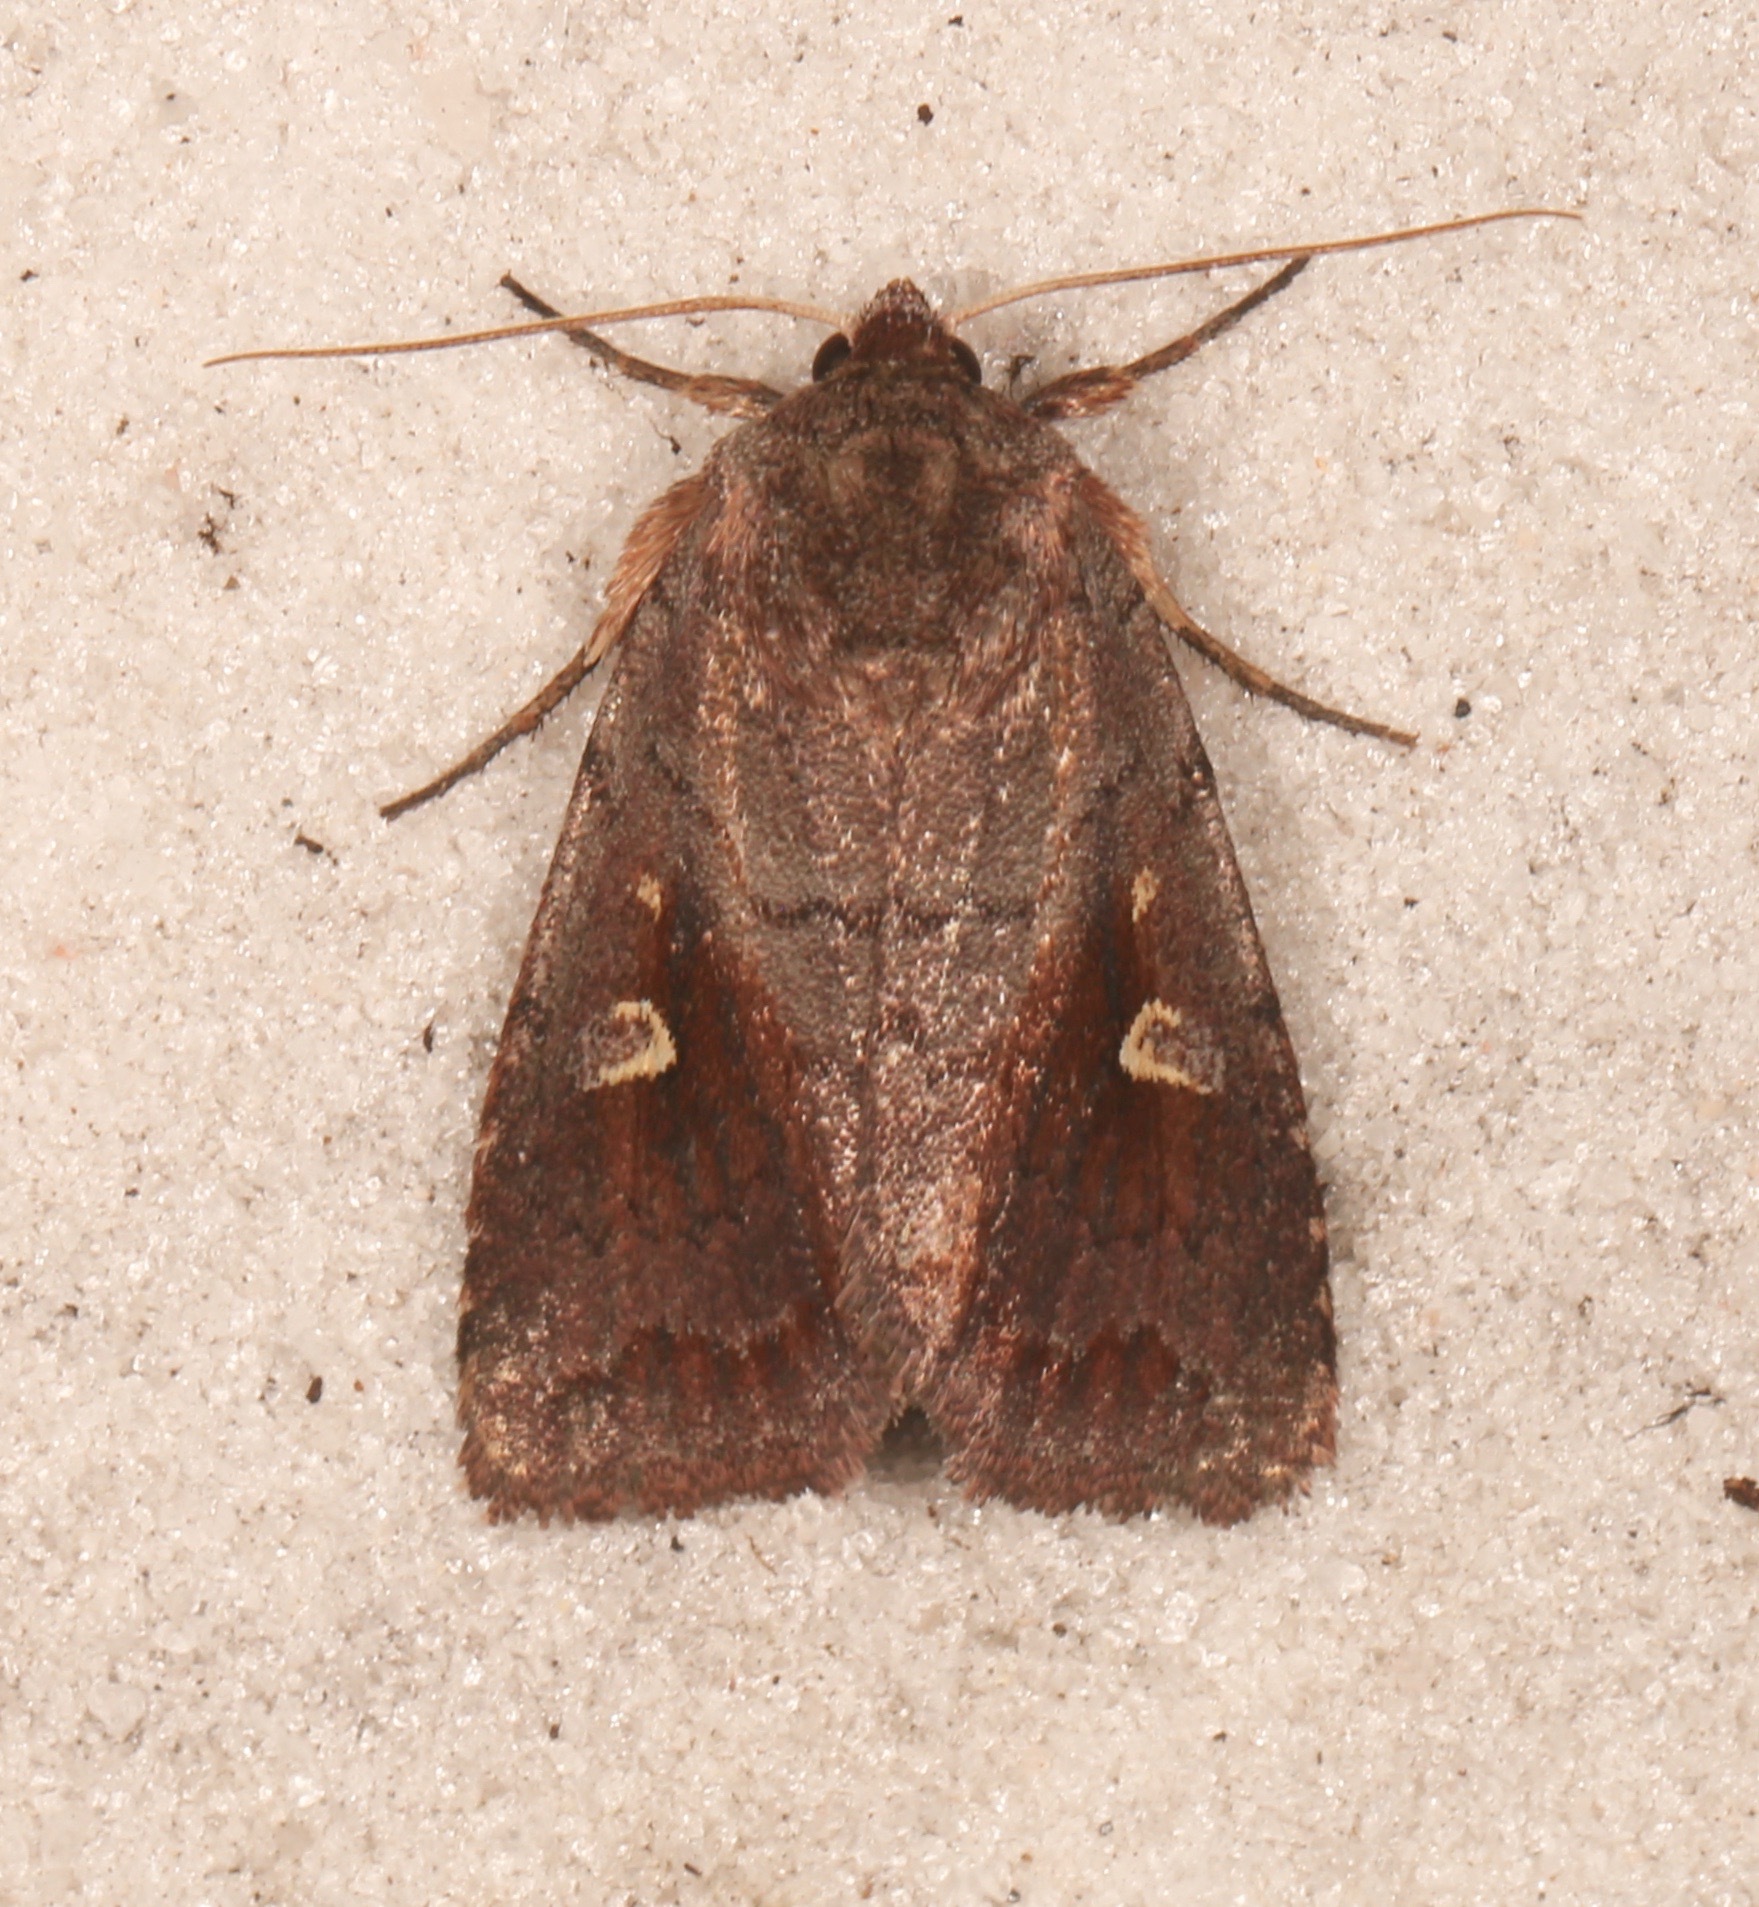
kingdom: Animalia
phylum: Arthropoda
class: Insecta
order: Lepidoptera
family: Noctuidae
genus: Iodopepla
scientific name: Iodopepla ualbum
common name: White-eyed borer moth
